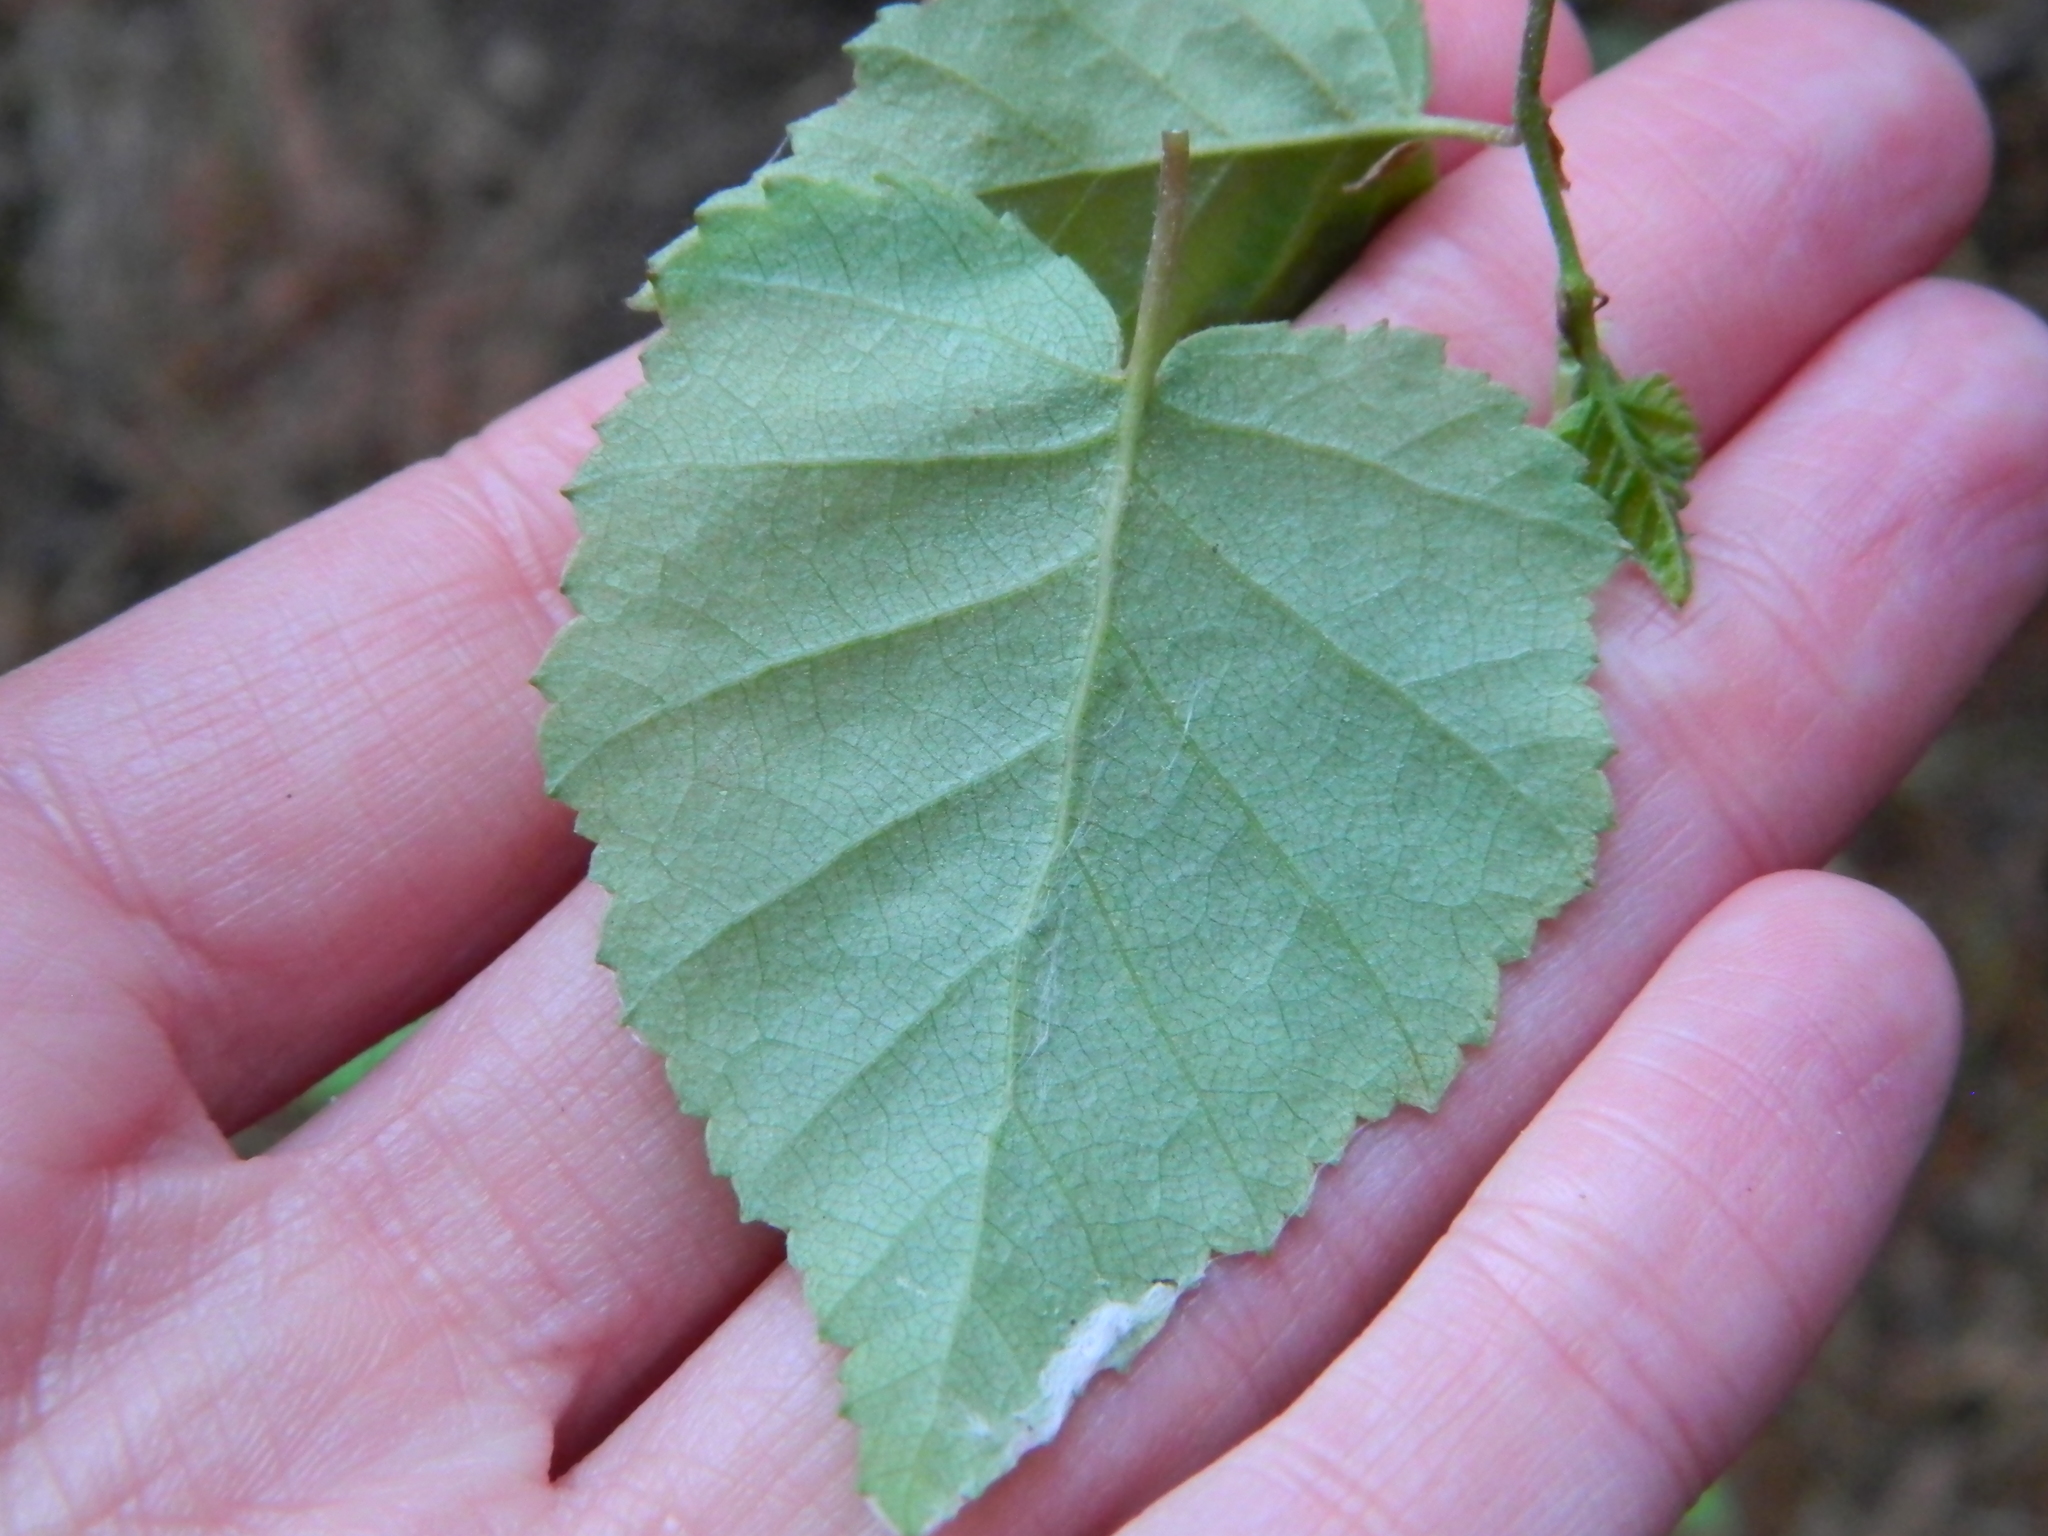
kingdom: Plantae
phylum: Tracheophyta
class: Magnoliopsida
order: Fagales
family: Betulaceae
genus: Betula
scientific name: Betula pubescens
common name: Downy birch
